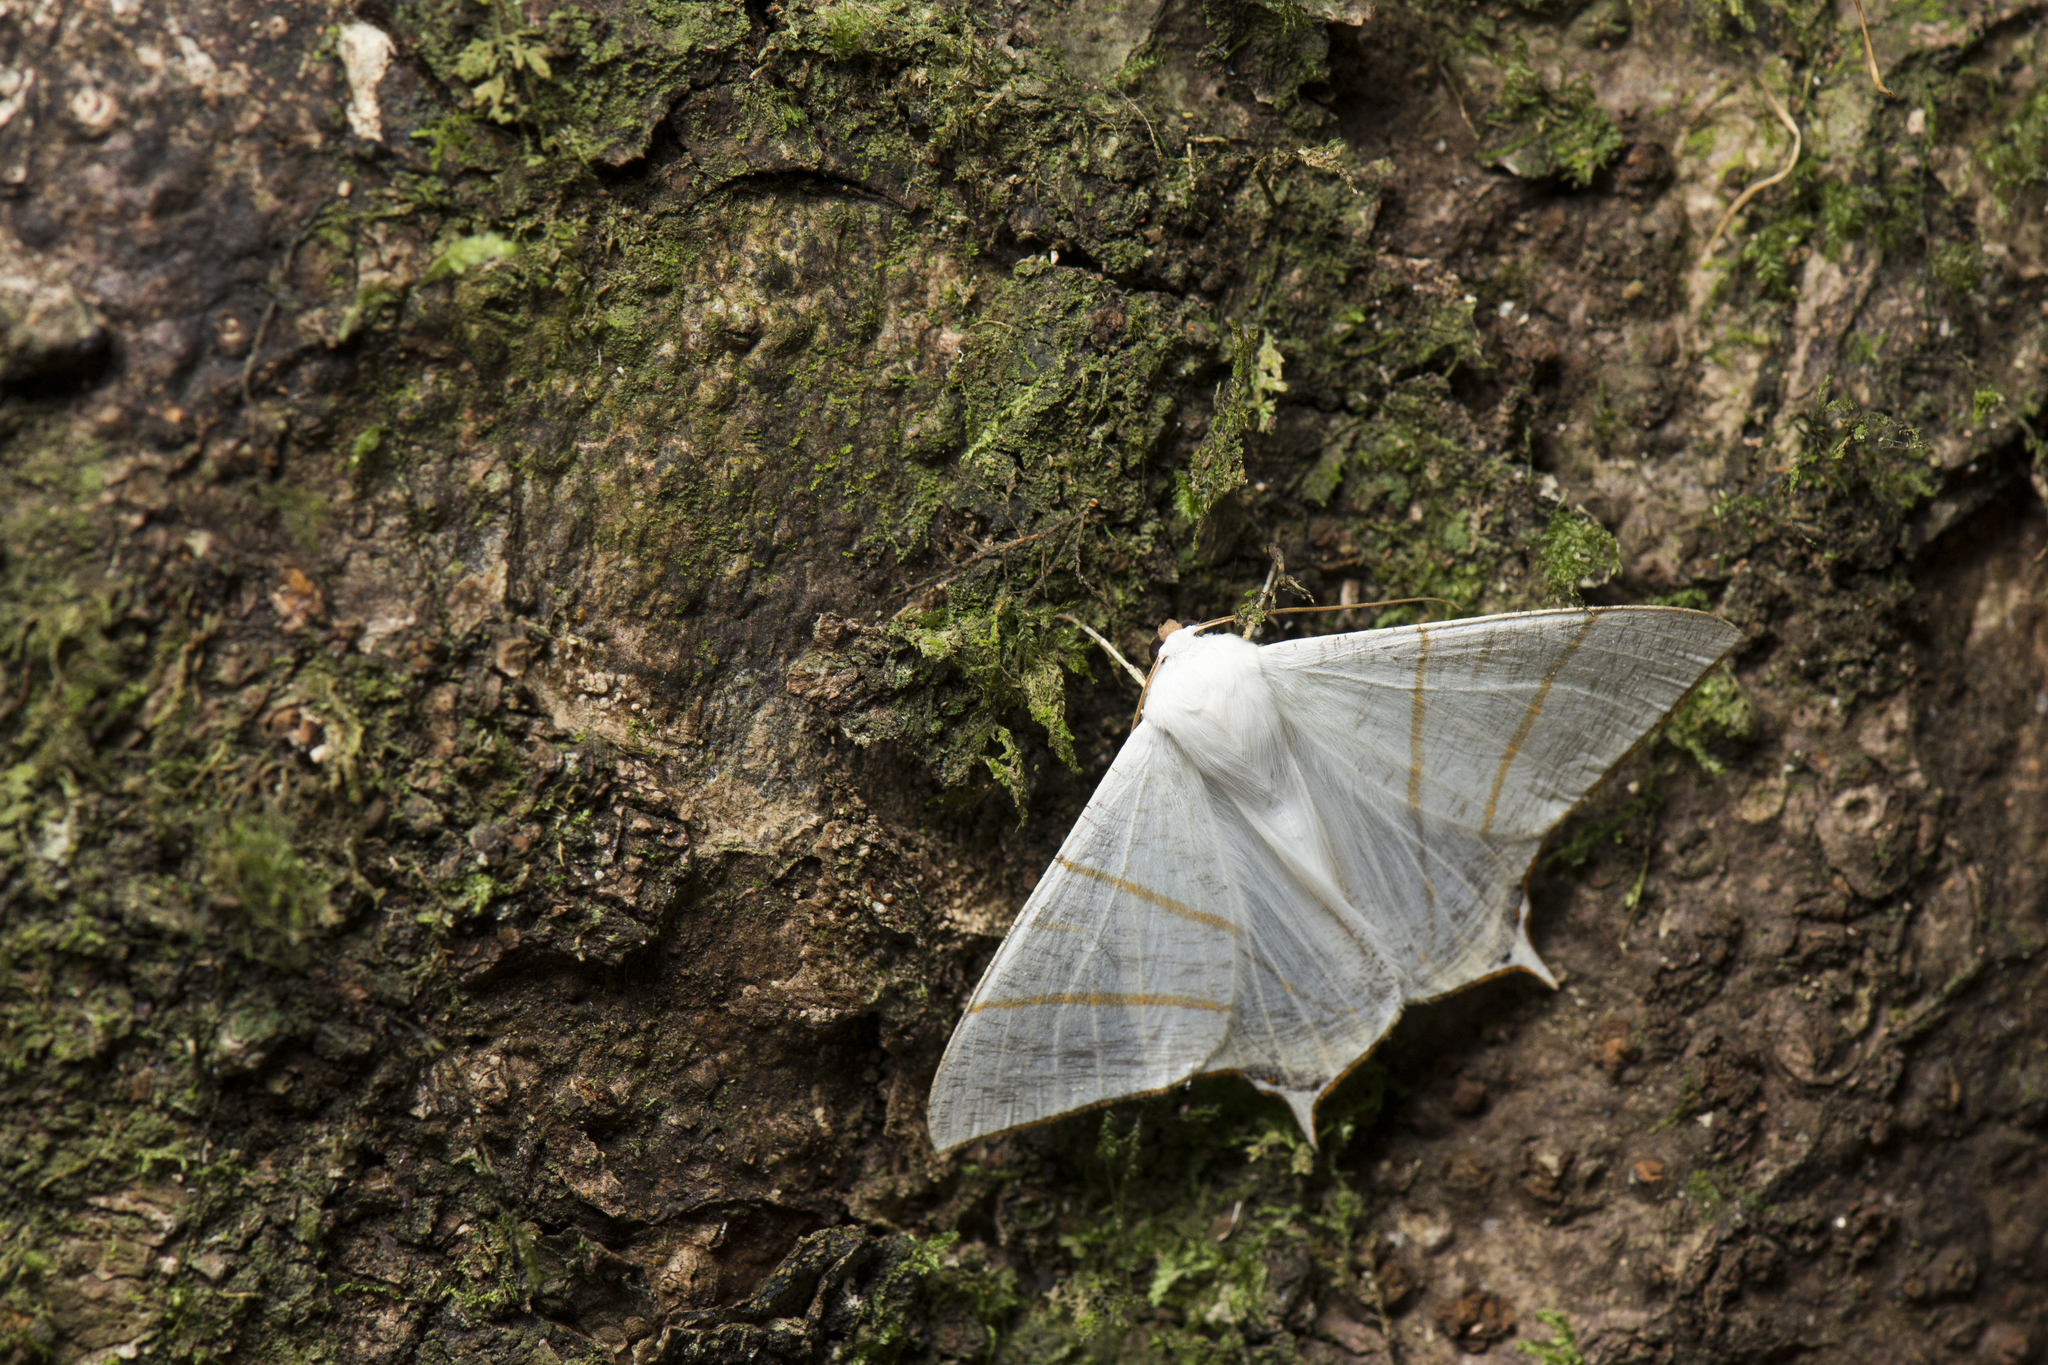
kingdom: Animalia
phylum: Arthropoda
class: Insecta
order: Lepidoptera
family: Geometridae
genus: Ourapteryx
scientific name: Ourapteryx changi
